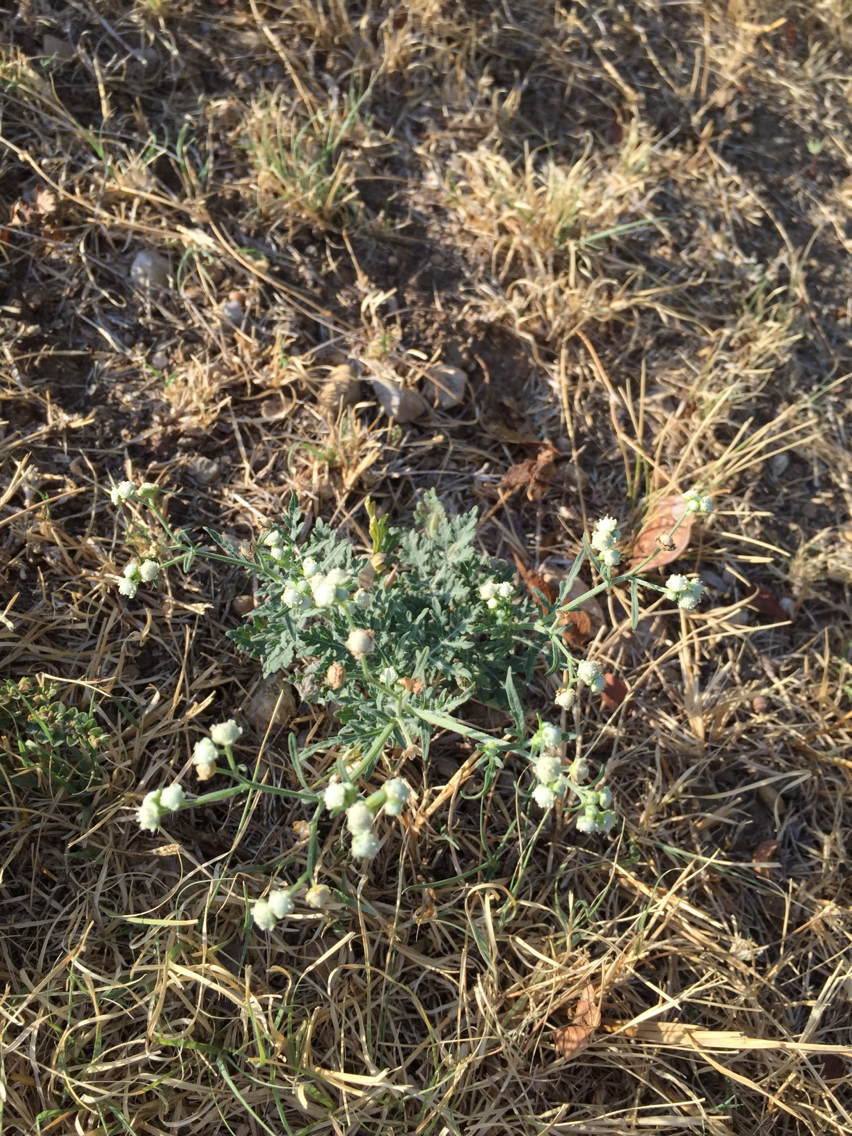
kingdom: Plantae
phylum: Tracheophyta
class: Magnoliopsida
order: Asterales
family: Asteraceae
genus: Parthenium
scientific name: Parthenium hysterophorus
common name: Santa maria feverfew
